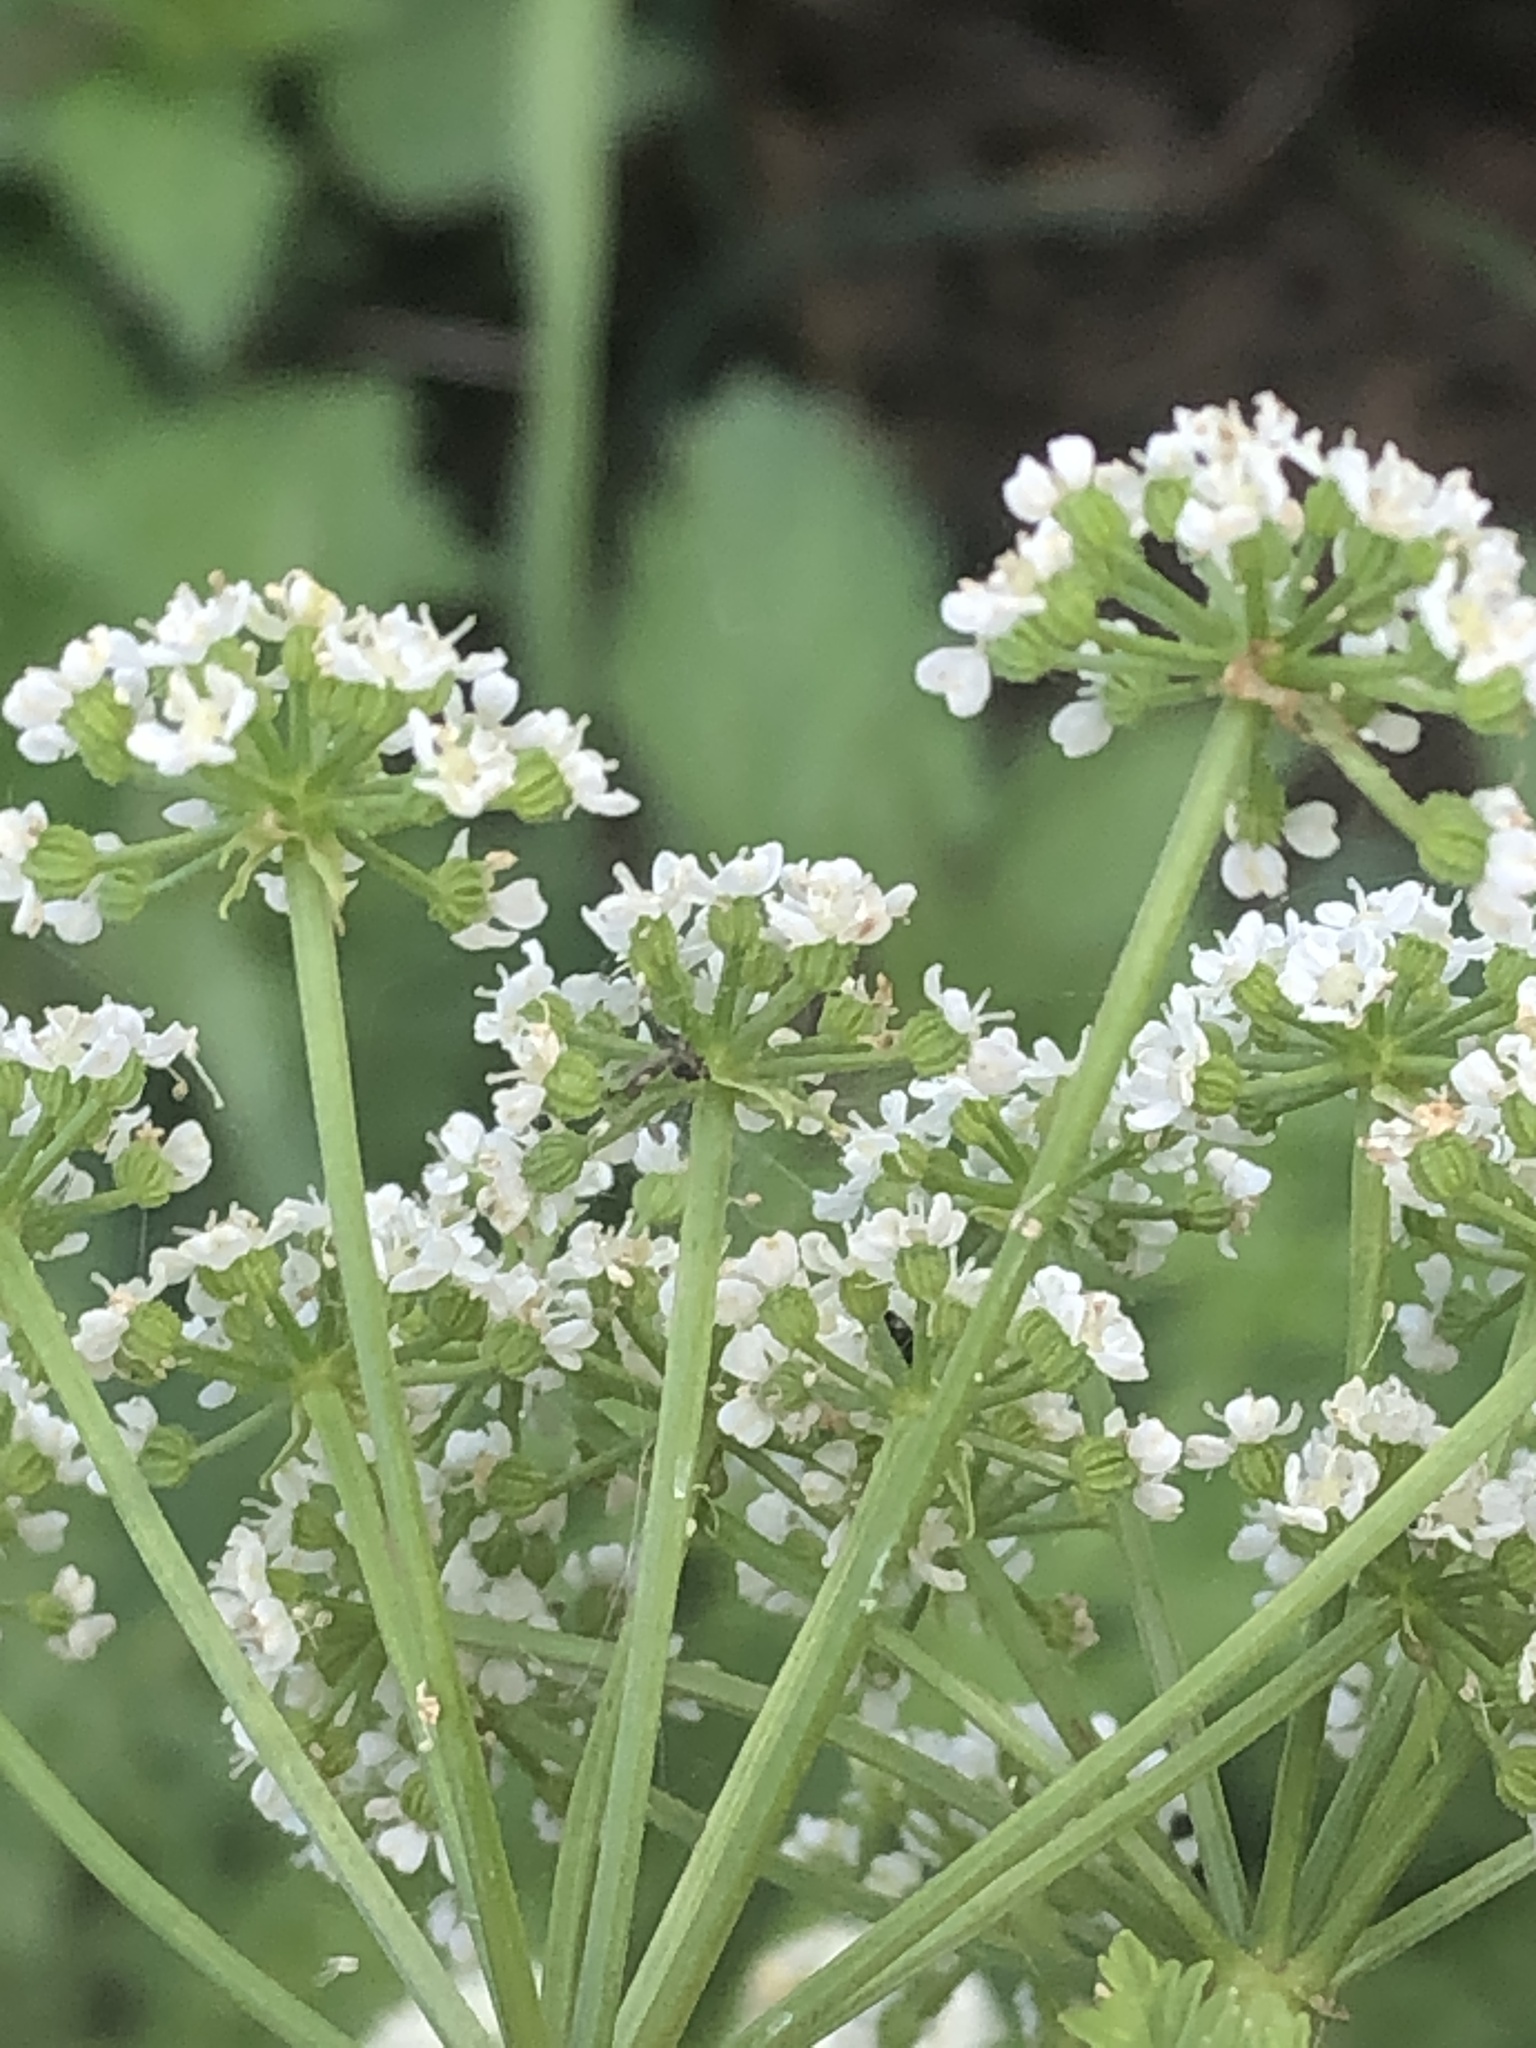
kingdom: Plantae
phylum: Tracheophyta
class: Magnoliopsida
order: Apiales
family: Apiaceae
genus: Conium
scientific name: Conium maculatum
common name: Hemlock
